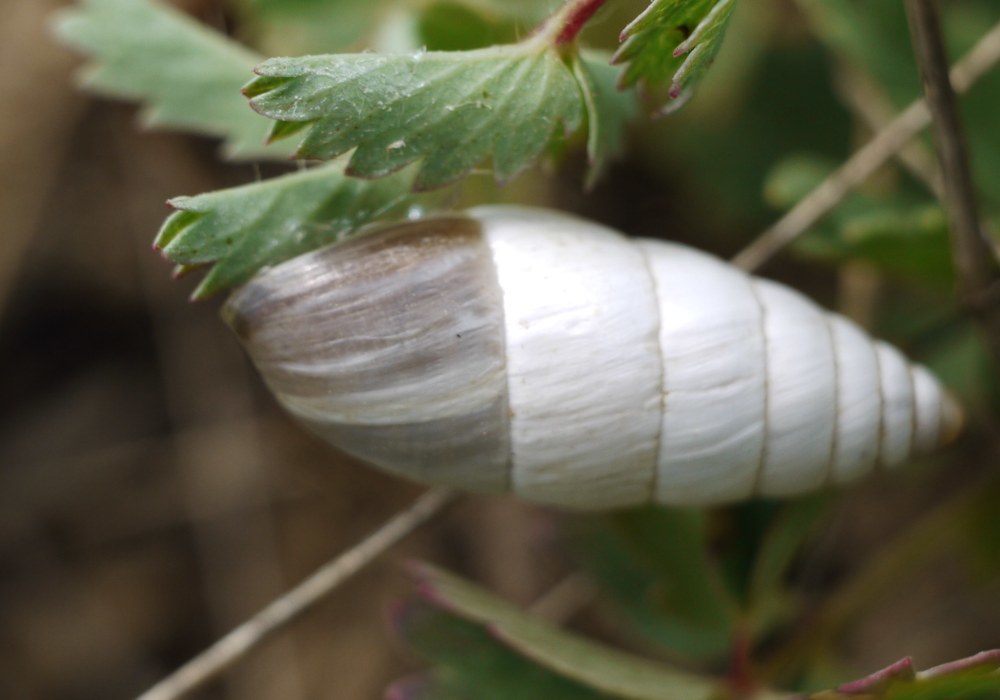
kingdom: Animalia
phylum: Mollusca
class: Gastropoda
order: Stylommatophora
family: Enidae
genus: Brephulopsis
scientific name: Brephulopsis cylindrica
